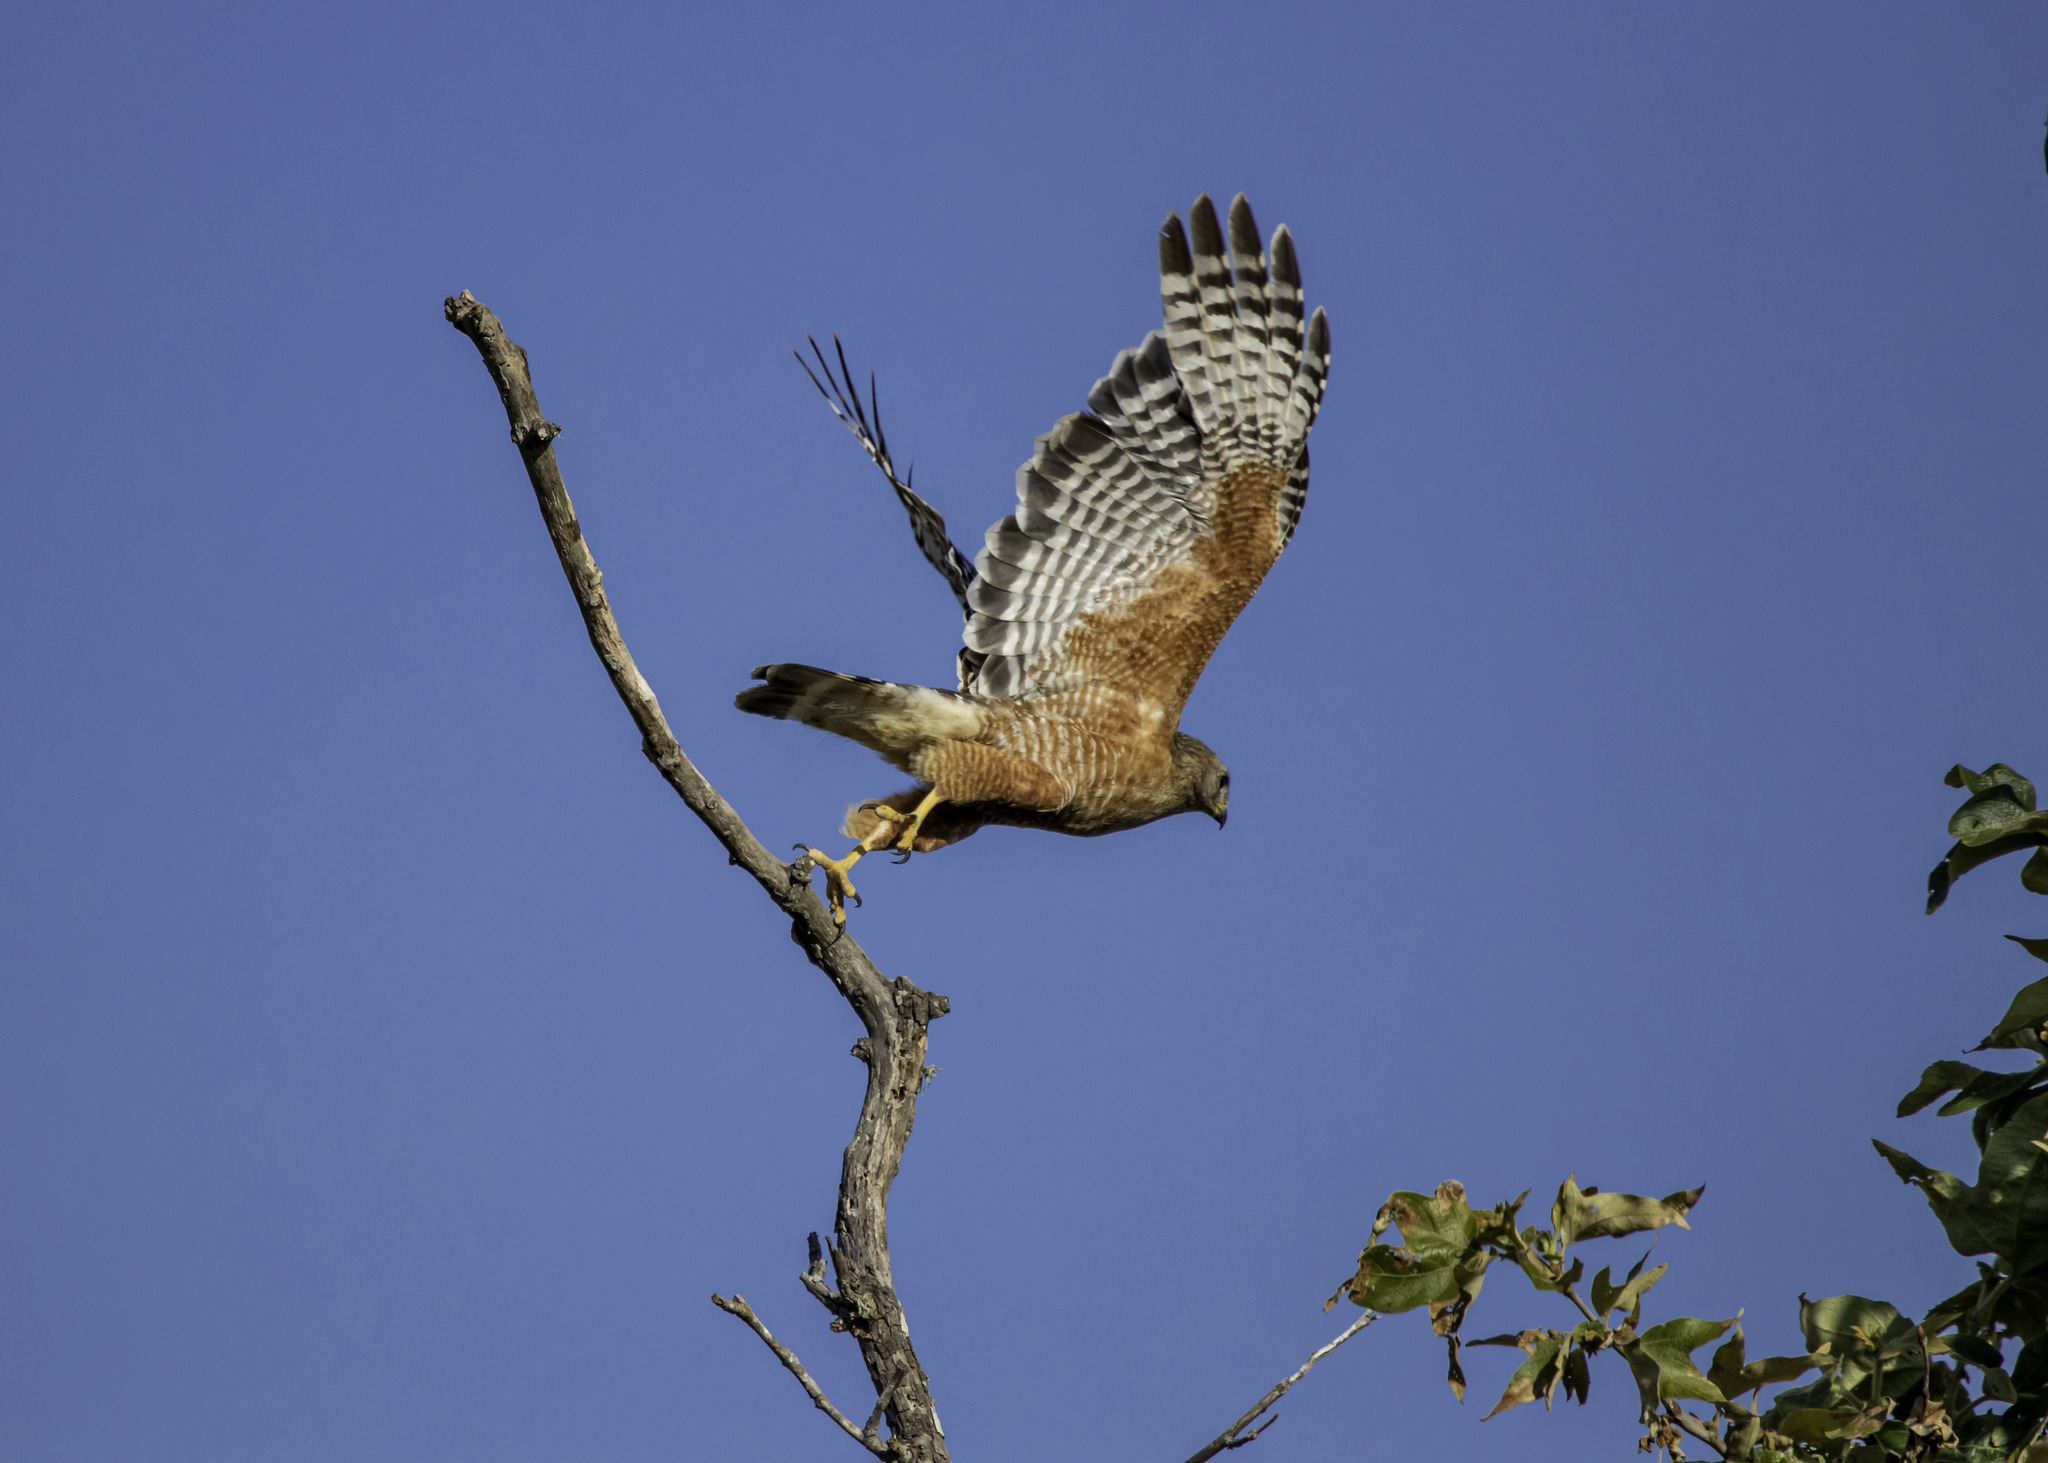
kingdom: Animalia
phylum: Chordata
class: Aves
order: Accipitriformes
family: Accipitridae
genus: Buteo
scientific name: Buteo lineatus
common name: Red-shouldered hawk
